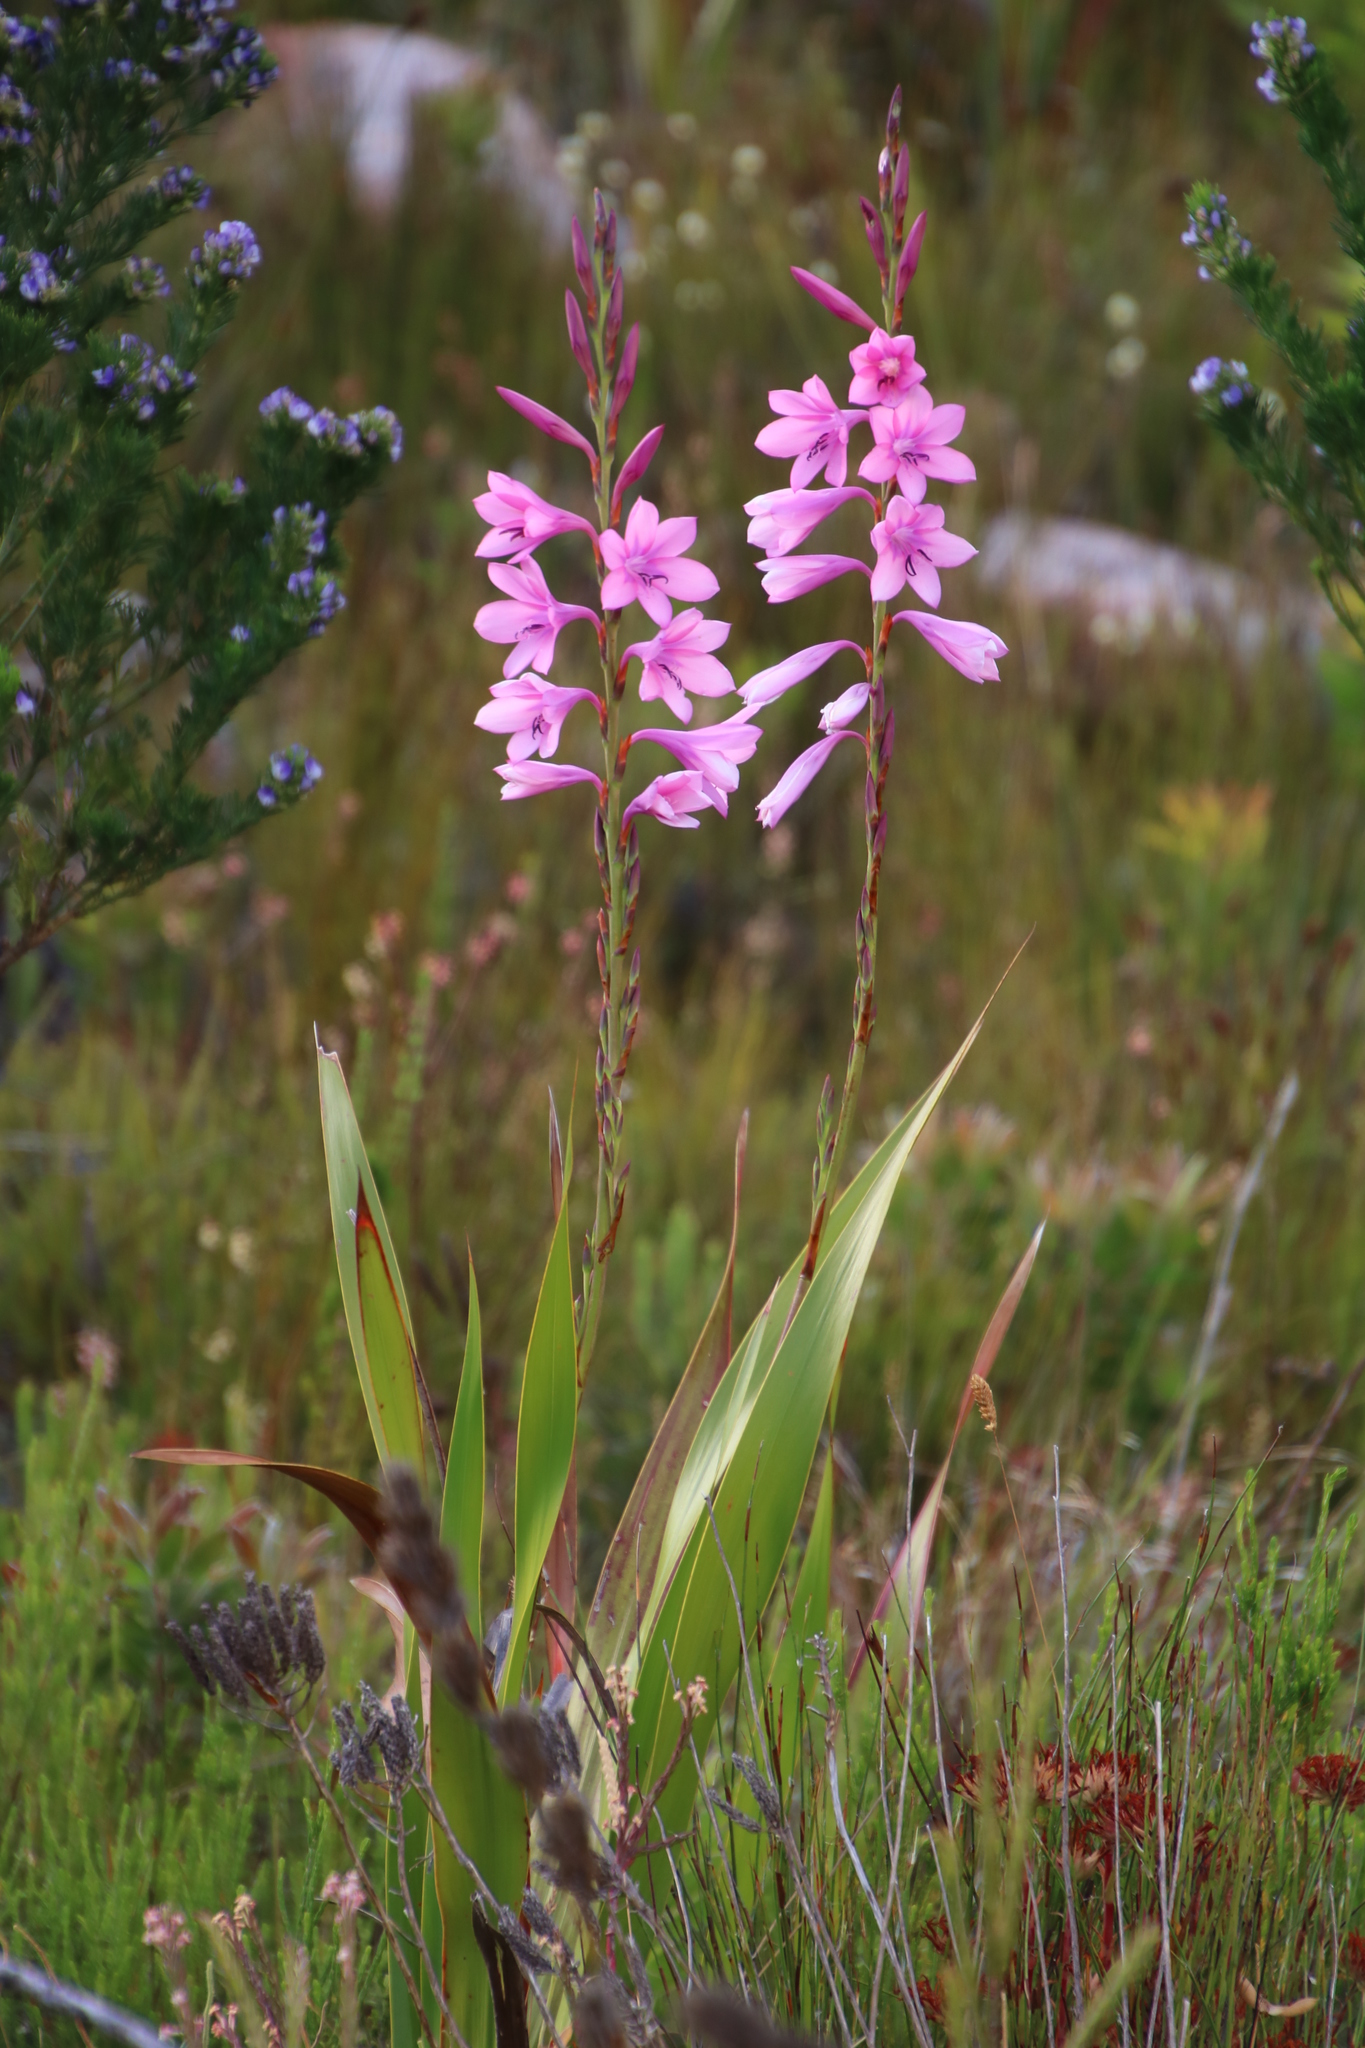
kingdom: Plantae
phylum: Tracheophyta
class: Liliopsida
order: Asparagales
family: Iridaceae
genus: Watsonia
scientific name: Watsonia borbonica
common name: Bugle-lily
